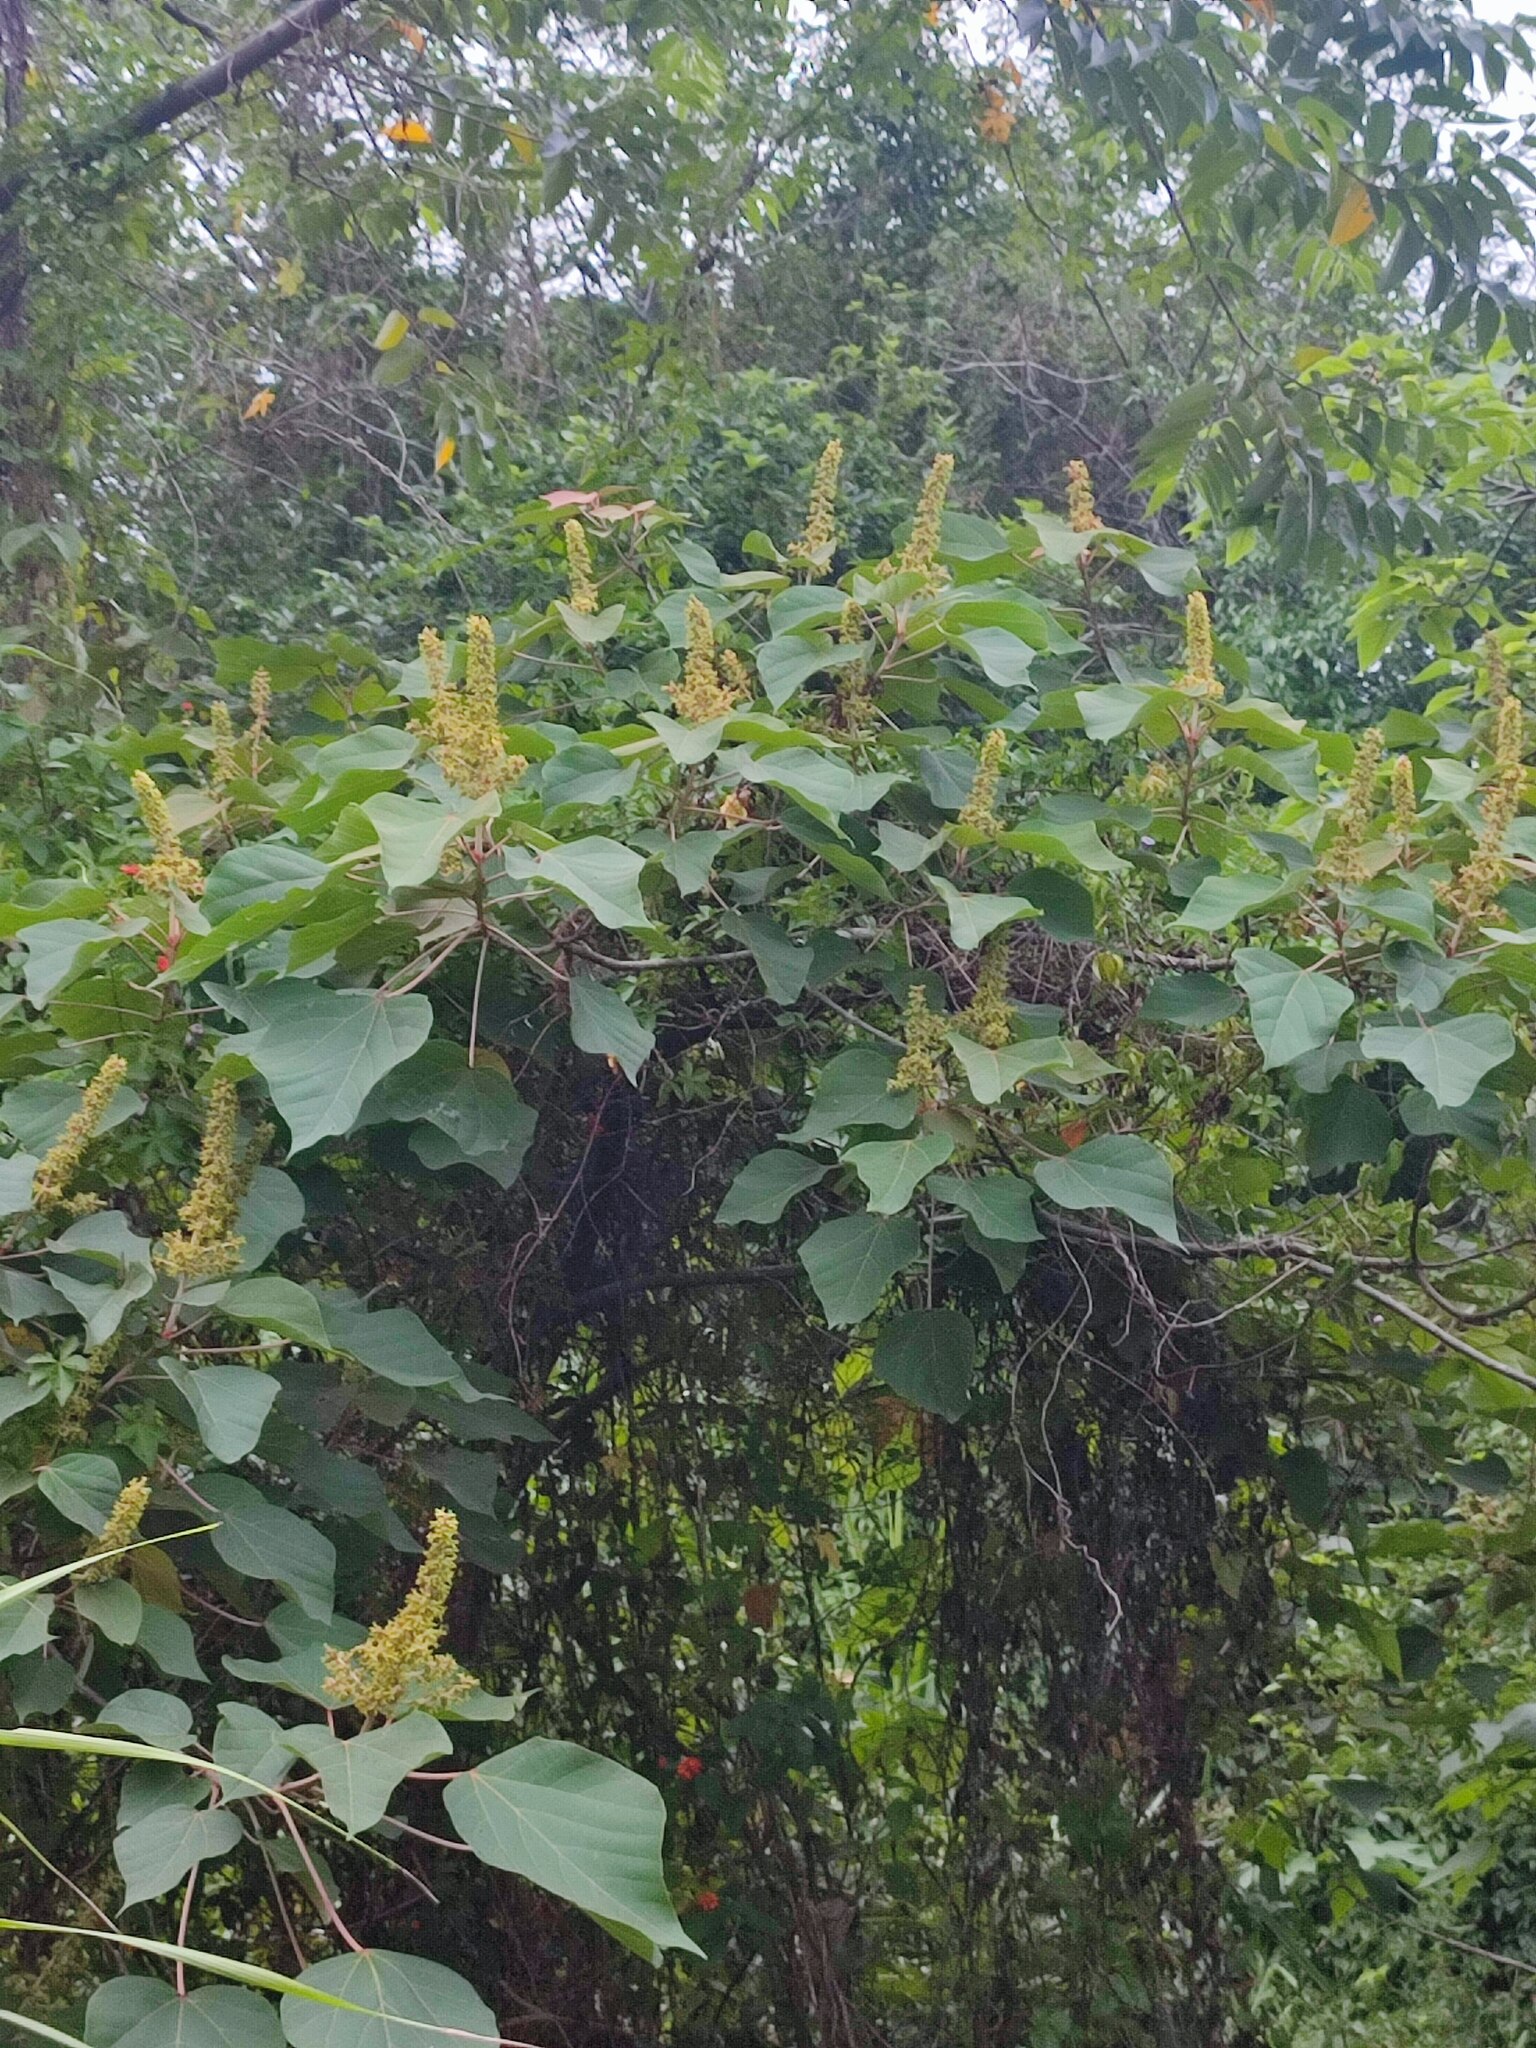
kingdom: Plantae
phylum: Tracheophyta
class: Magnoliopsida
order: Malpighiales
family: Euphorbiaceae
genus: Mallotus
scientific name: Mallotus japonicus
